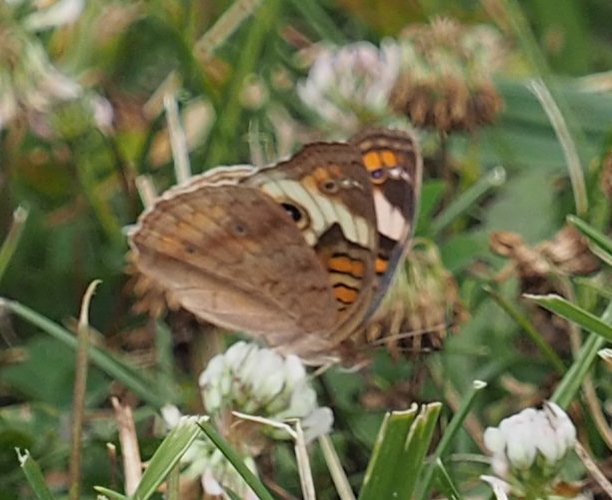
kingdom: Animalia
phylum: Arthropoda
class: Insecta
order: Lepidoptera
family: Nymphalidae
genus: Junonia
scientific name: Junonia coenia
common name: Common buckeye
